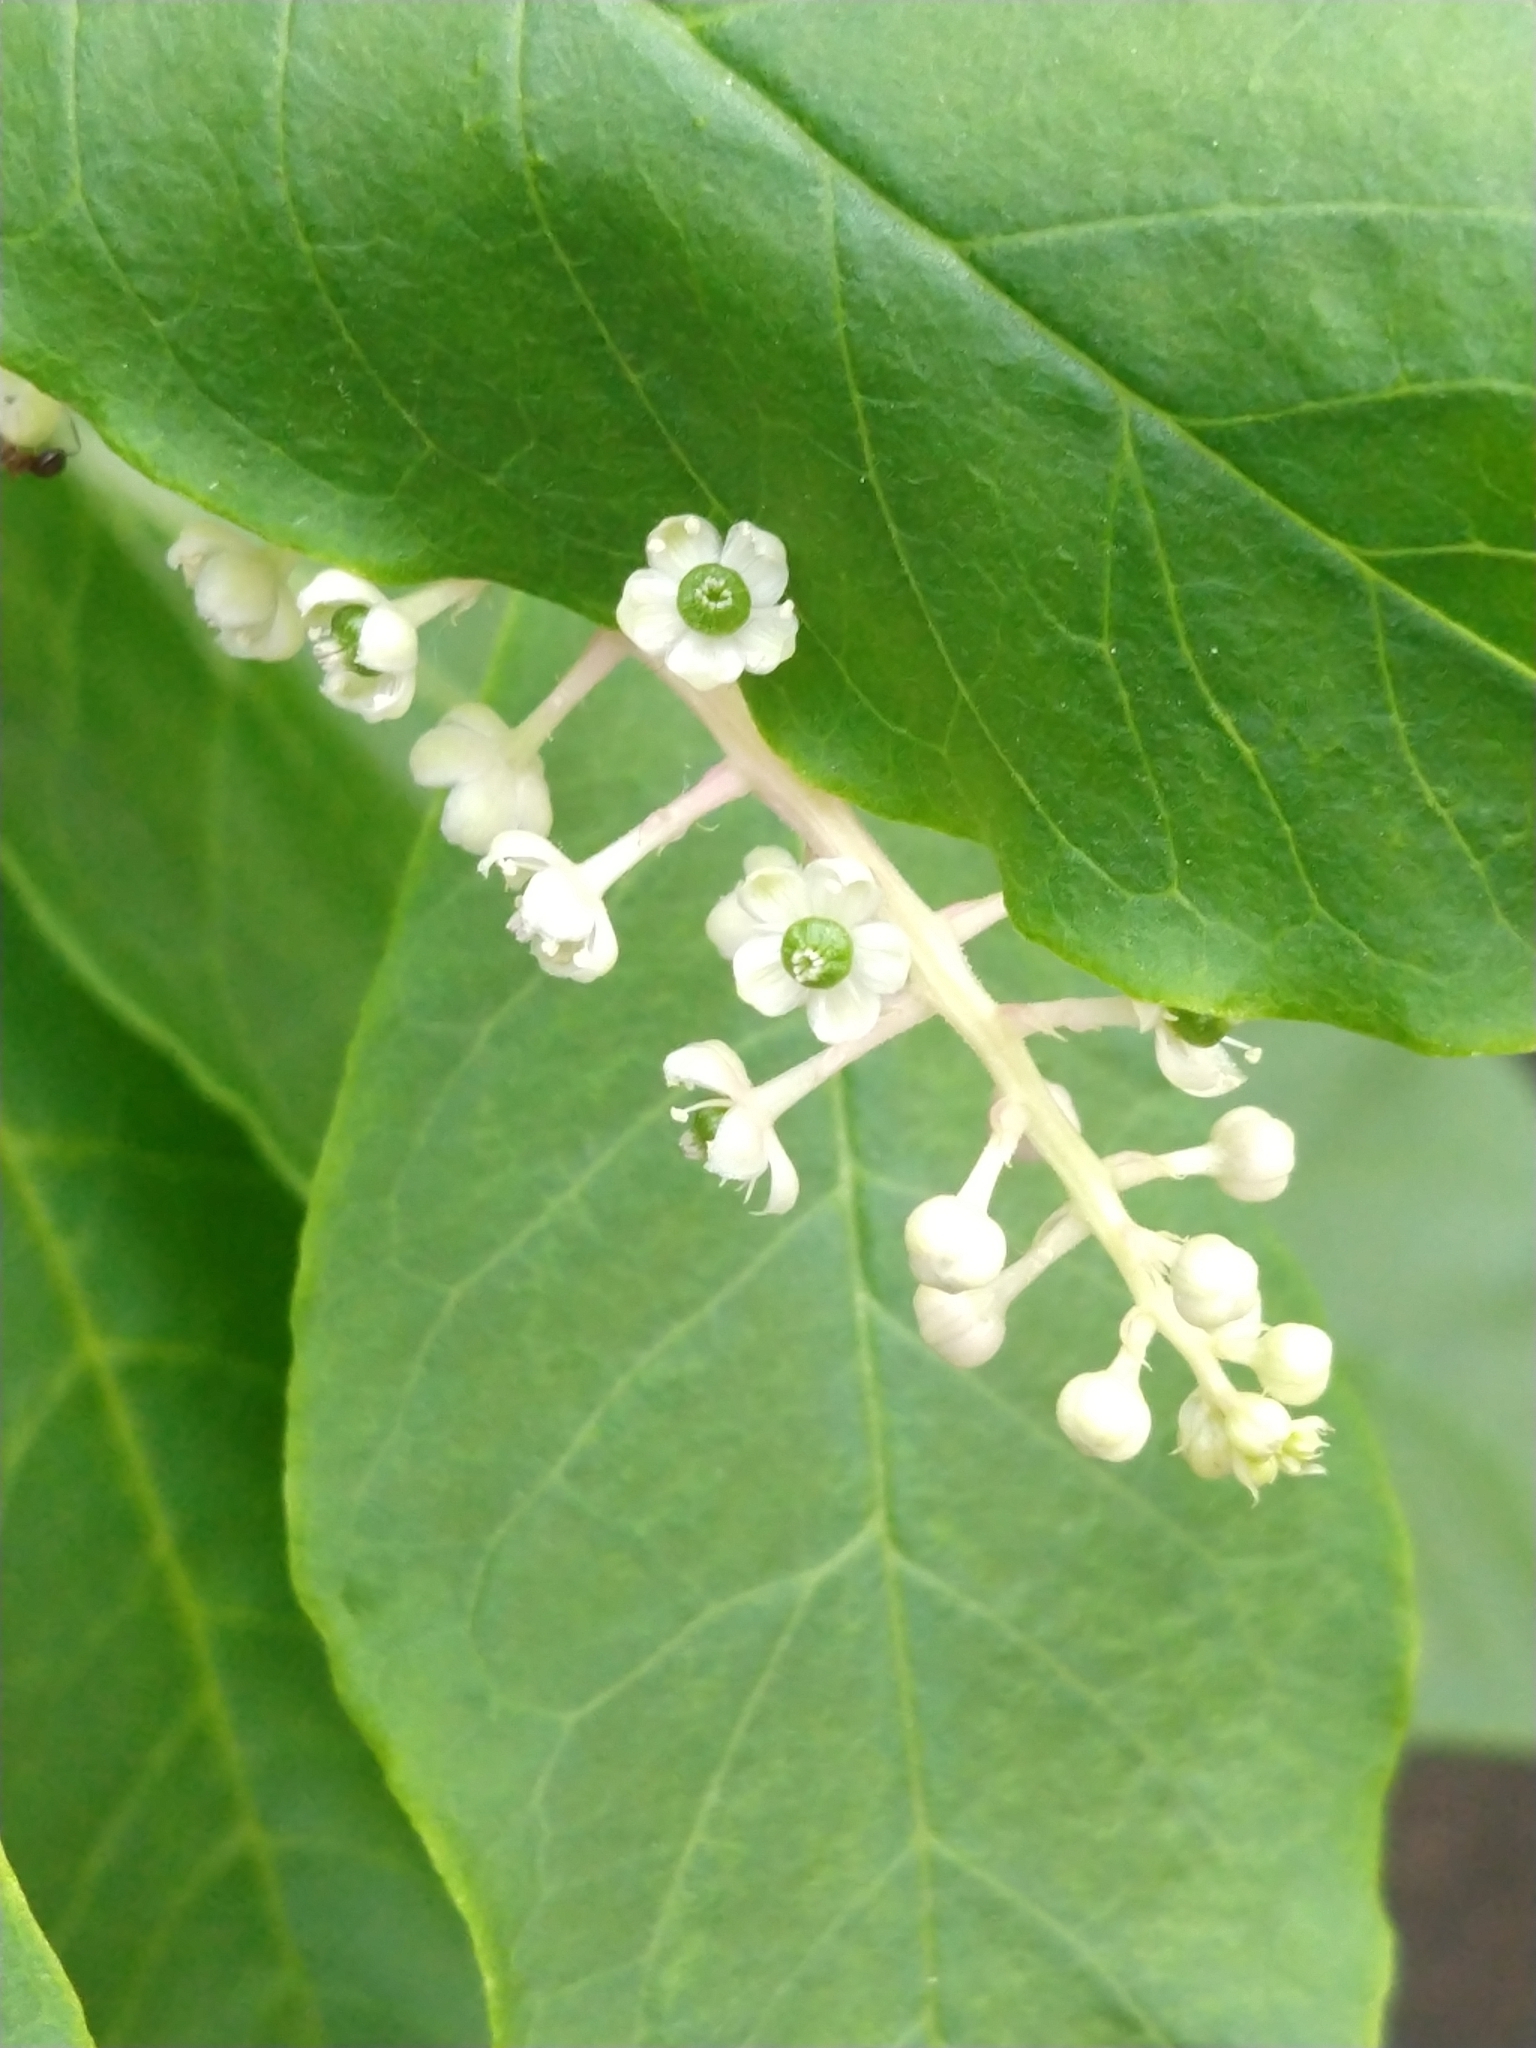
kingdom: Plantae
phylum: Tracheophyta
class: Magnoliopsida
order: Caryophyllales
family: Phytolaccaceae
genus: Phytolacca
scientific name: Phytolacca americana
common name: American pokeweed
